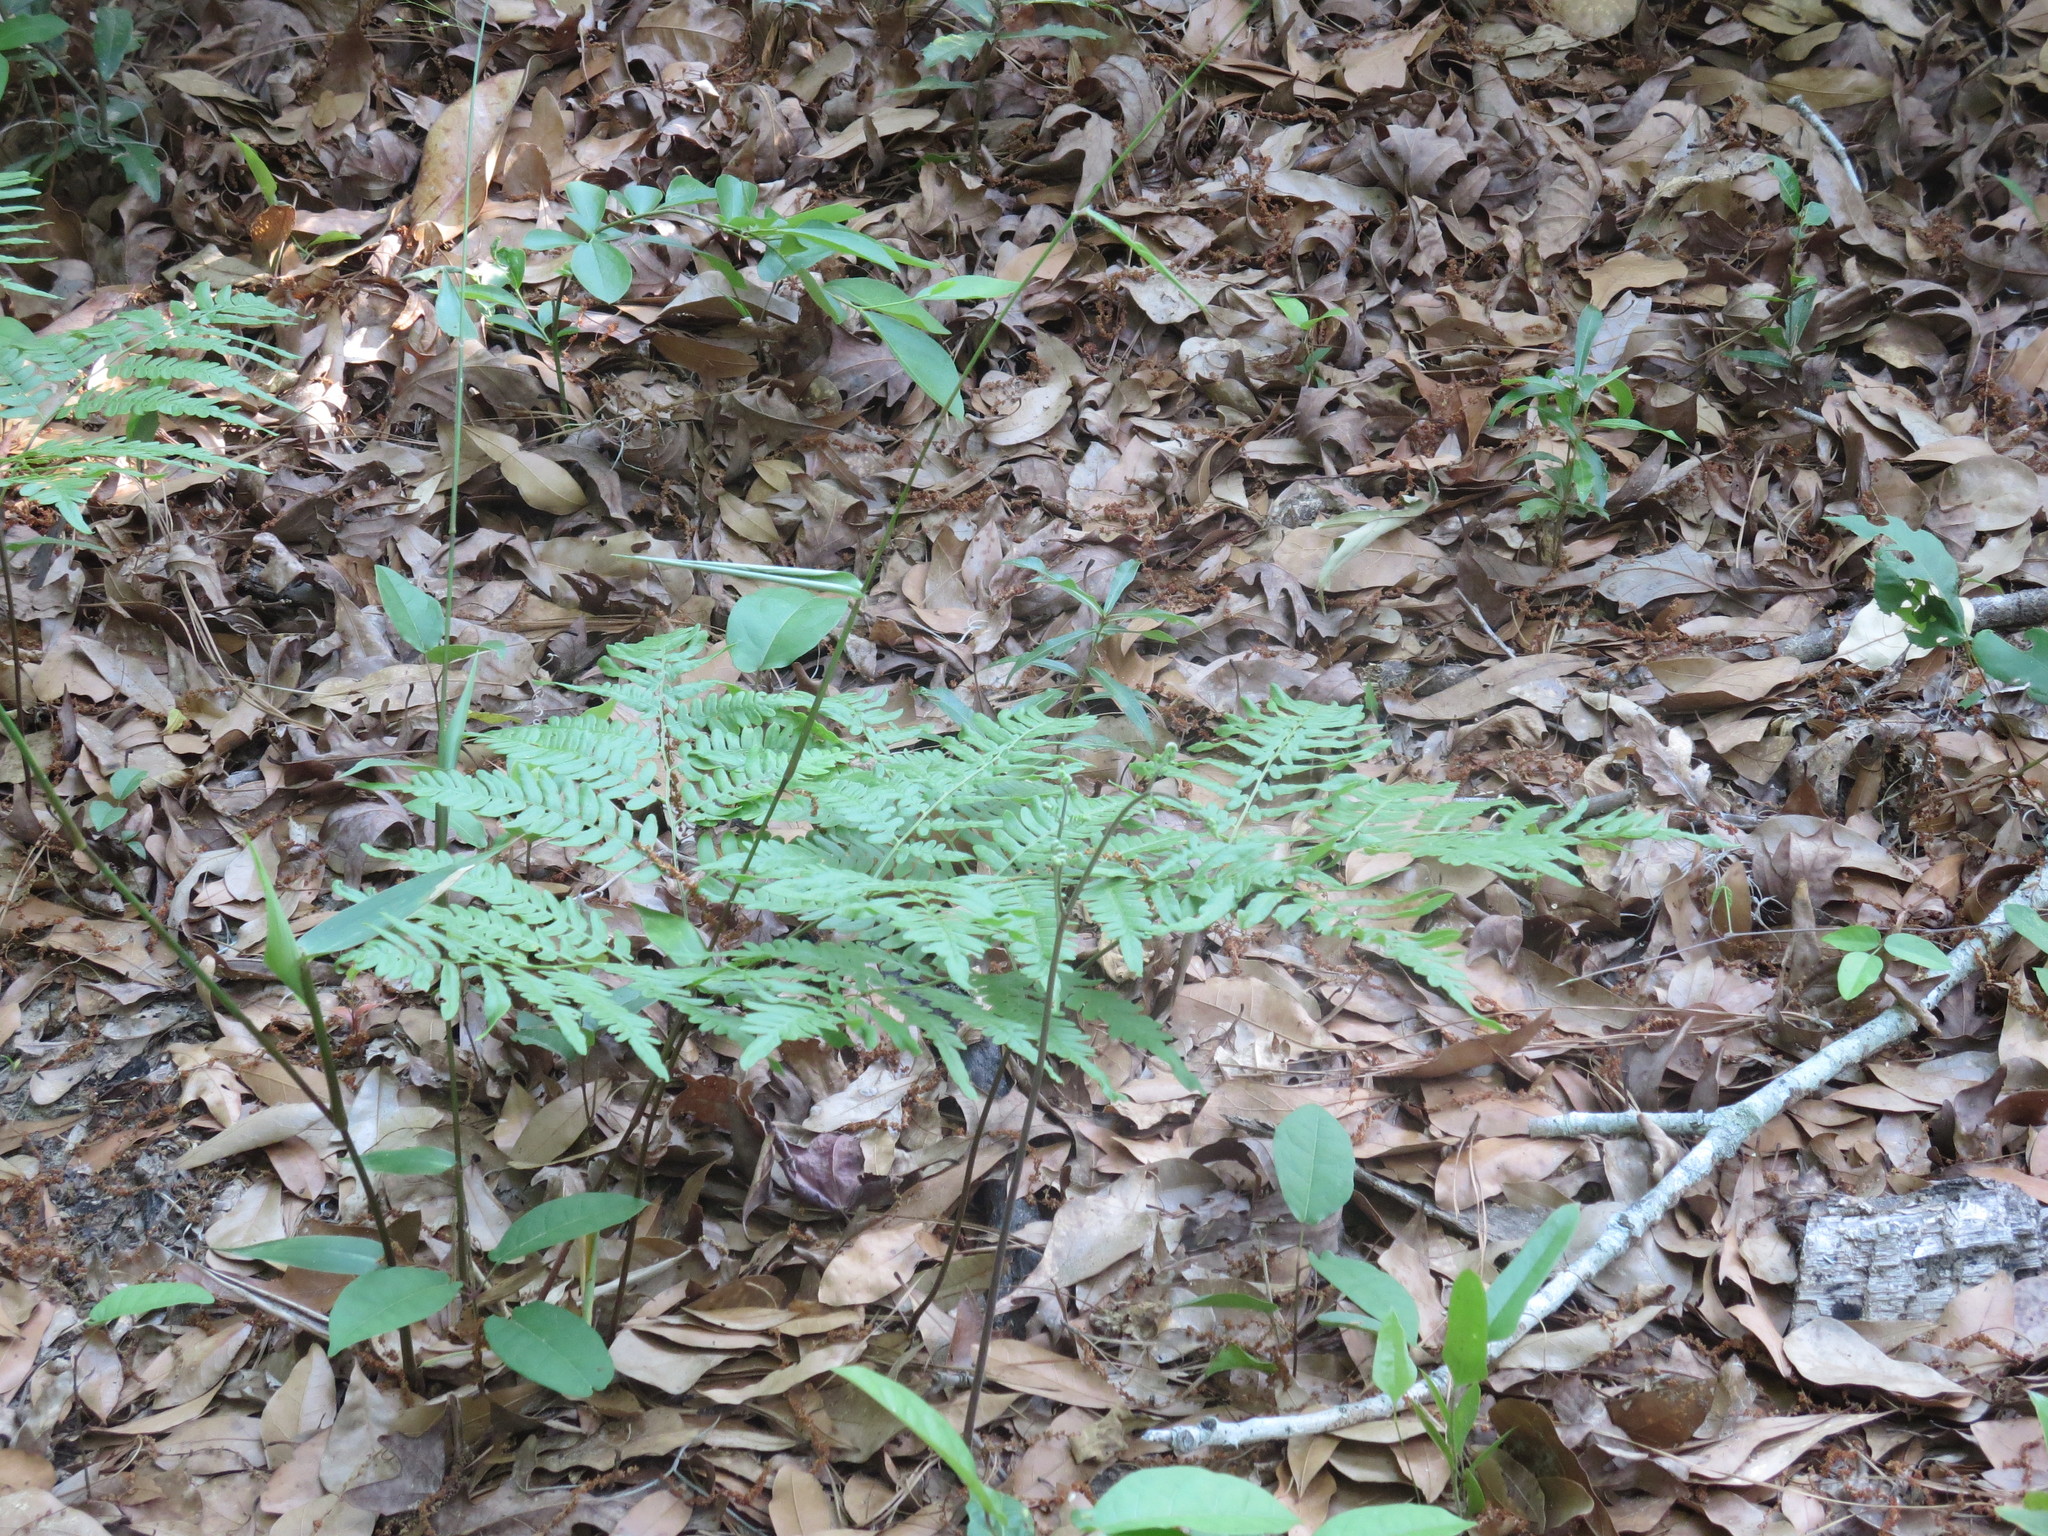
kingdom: Plantae
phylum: Tracheophyta
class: Polypodiopsida
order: Polypodiales
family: Dennstaedtiaceae
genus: Pteridium
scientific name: Pteridium
